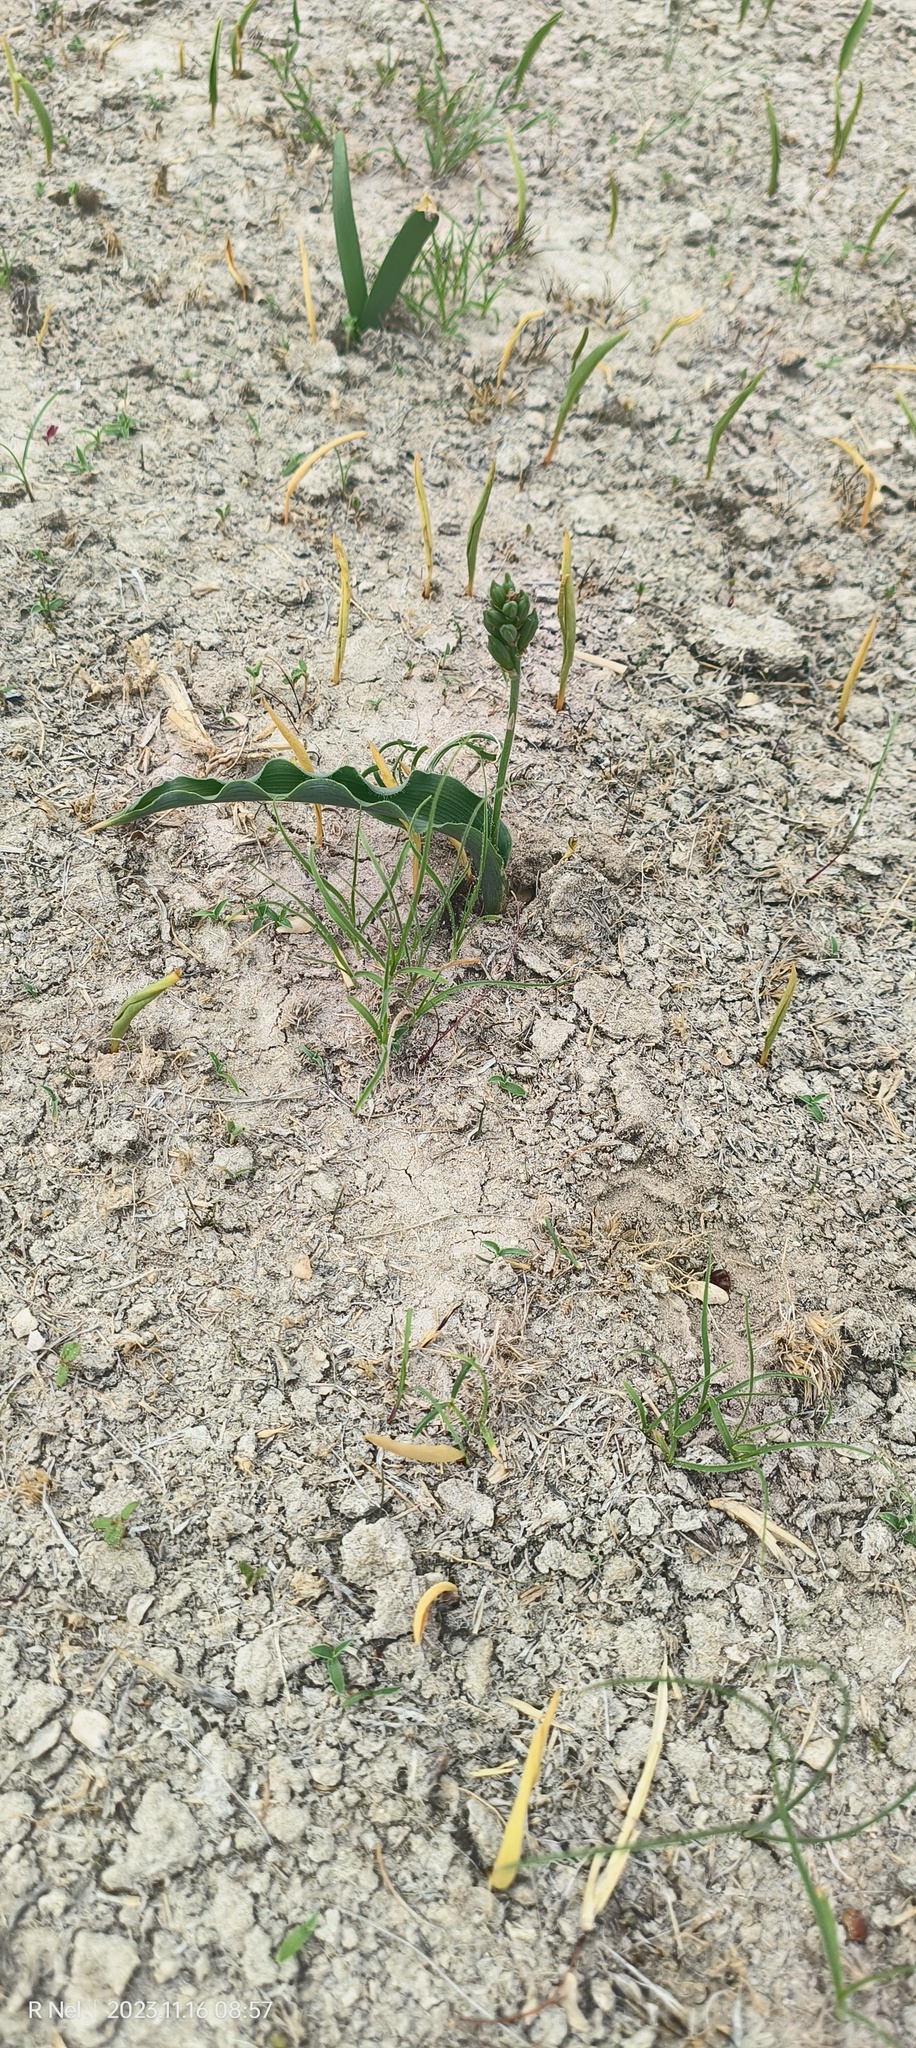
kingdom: Plantae
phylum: Tracheophyta
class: Liliopsida
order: Liliales
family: Colchicaceae
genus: Ornithoglossum
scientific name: Ornithoglossum vulgare
